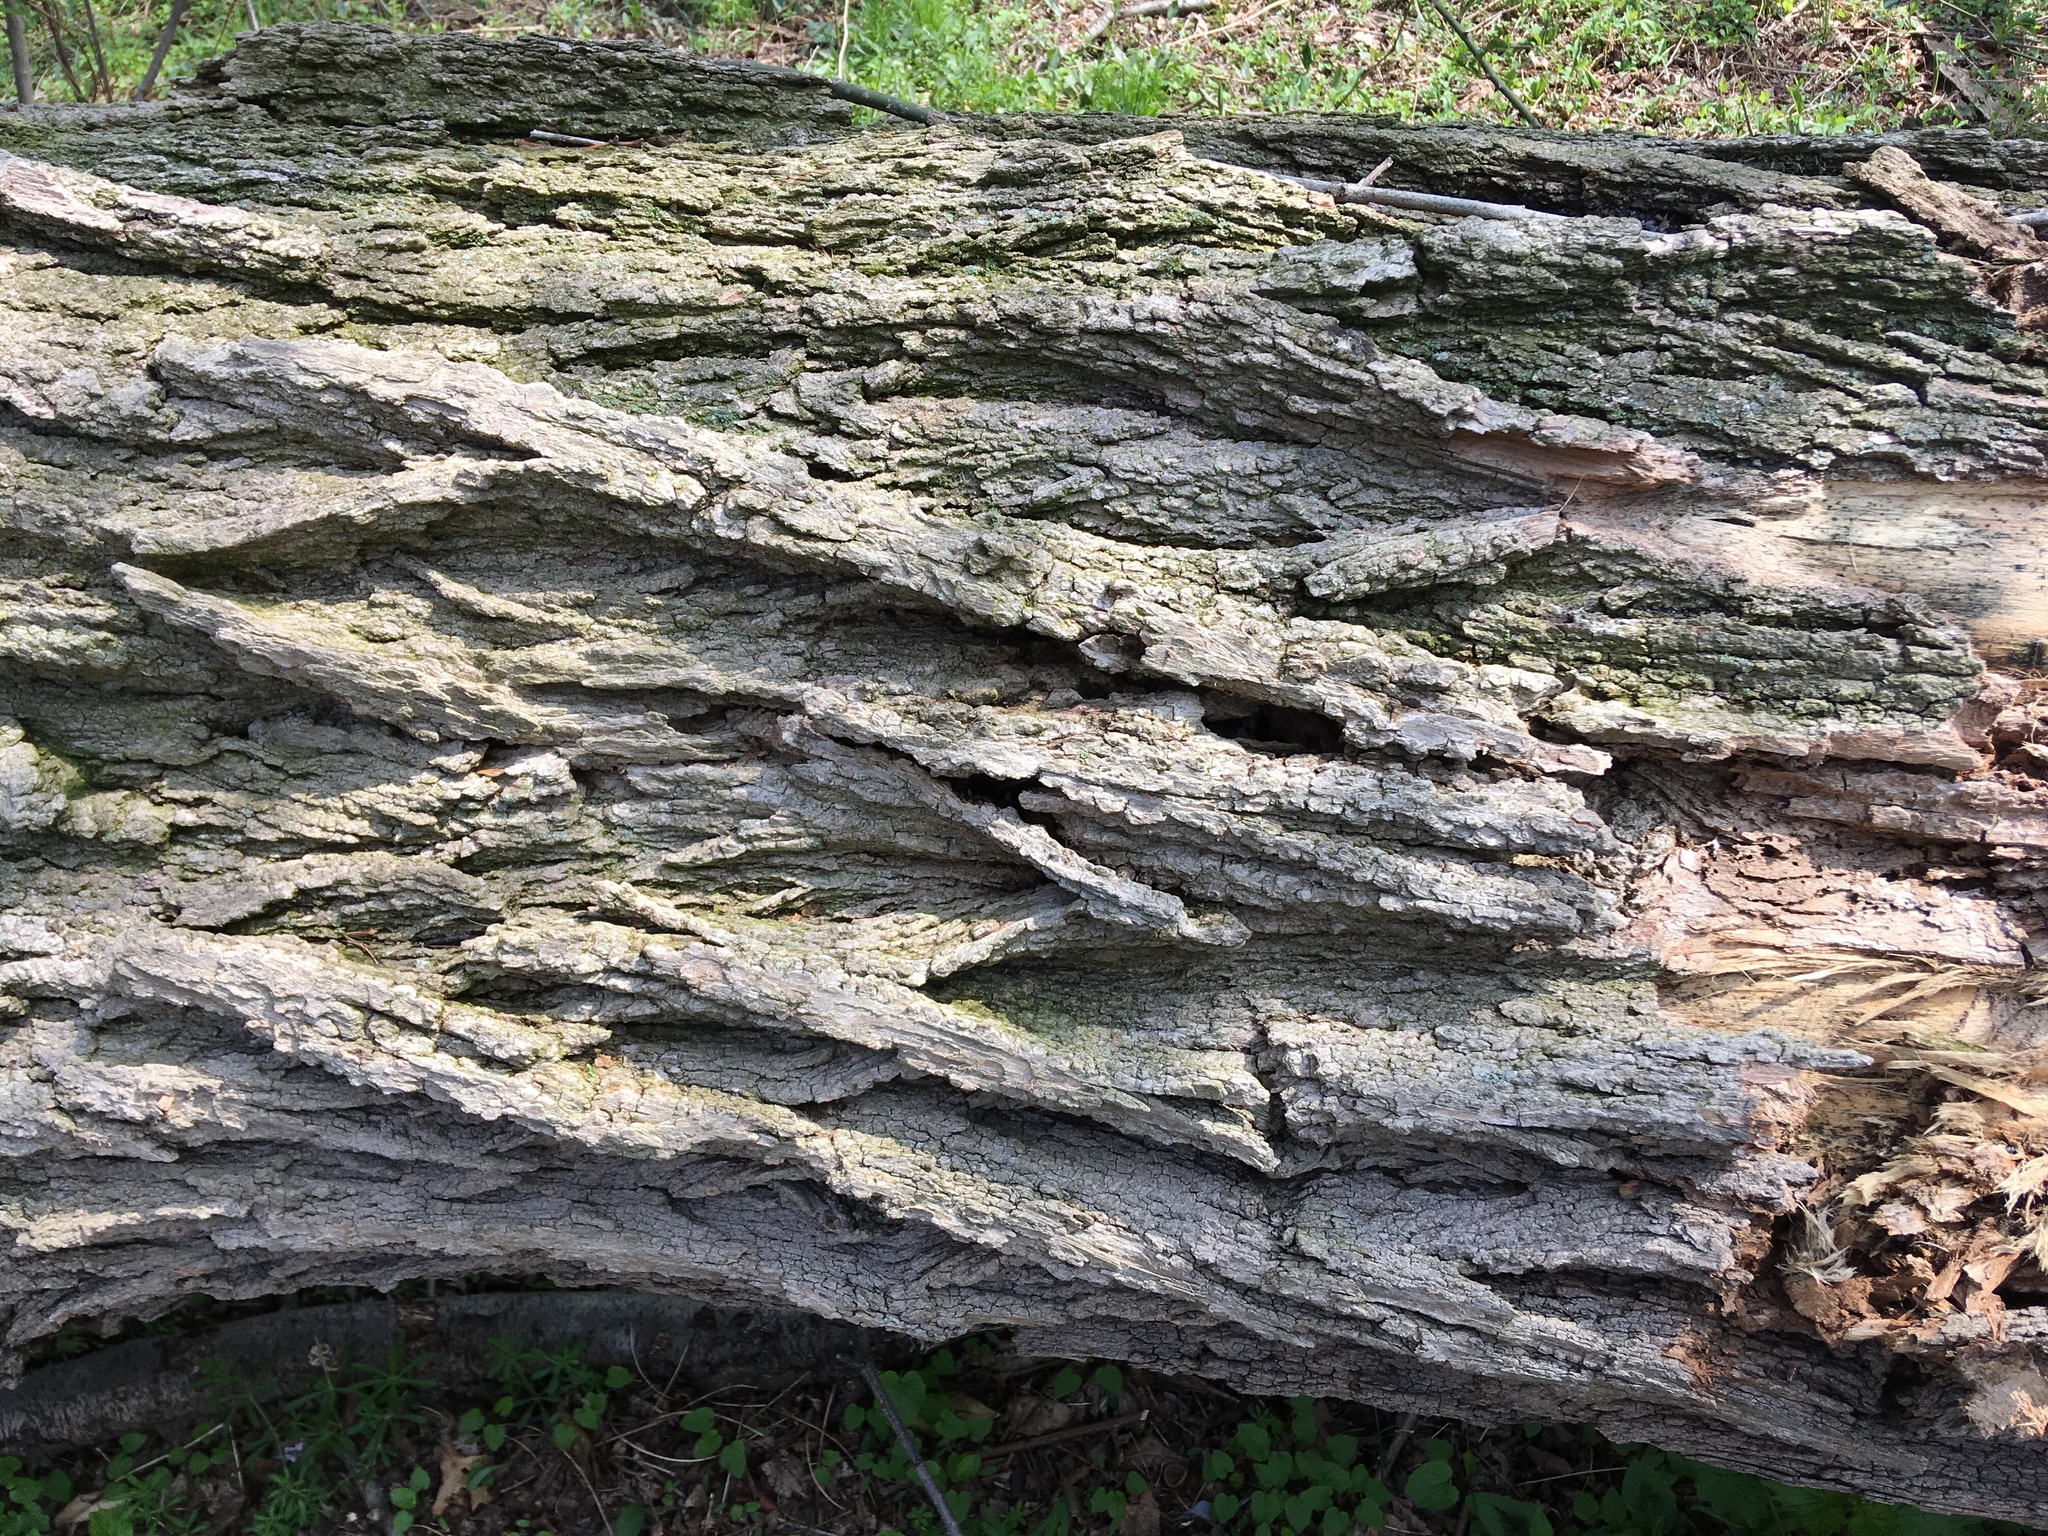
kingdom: Plantae
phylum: Tracheophyta
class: Magnoliopsida
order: Fabales
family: Fabaceae
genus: Robinia
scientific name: Robinia pseudoacacia
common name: Black locust
